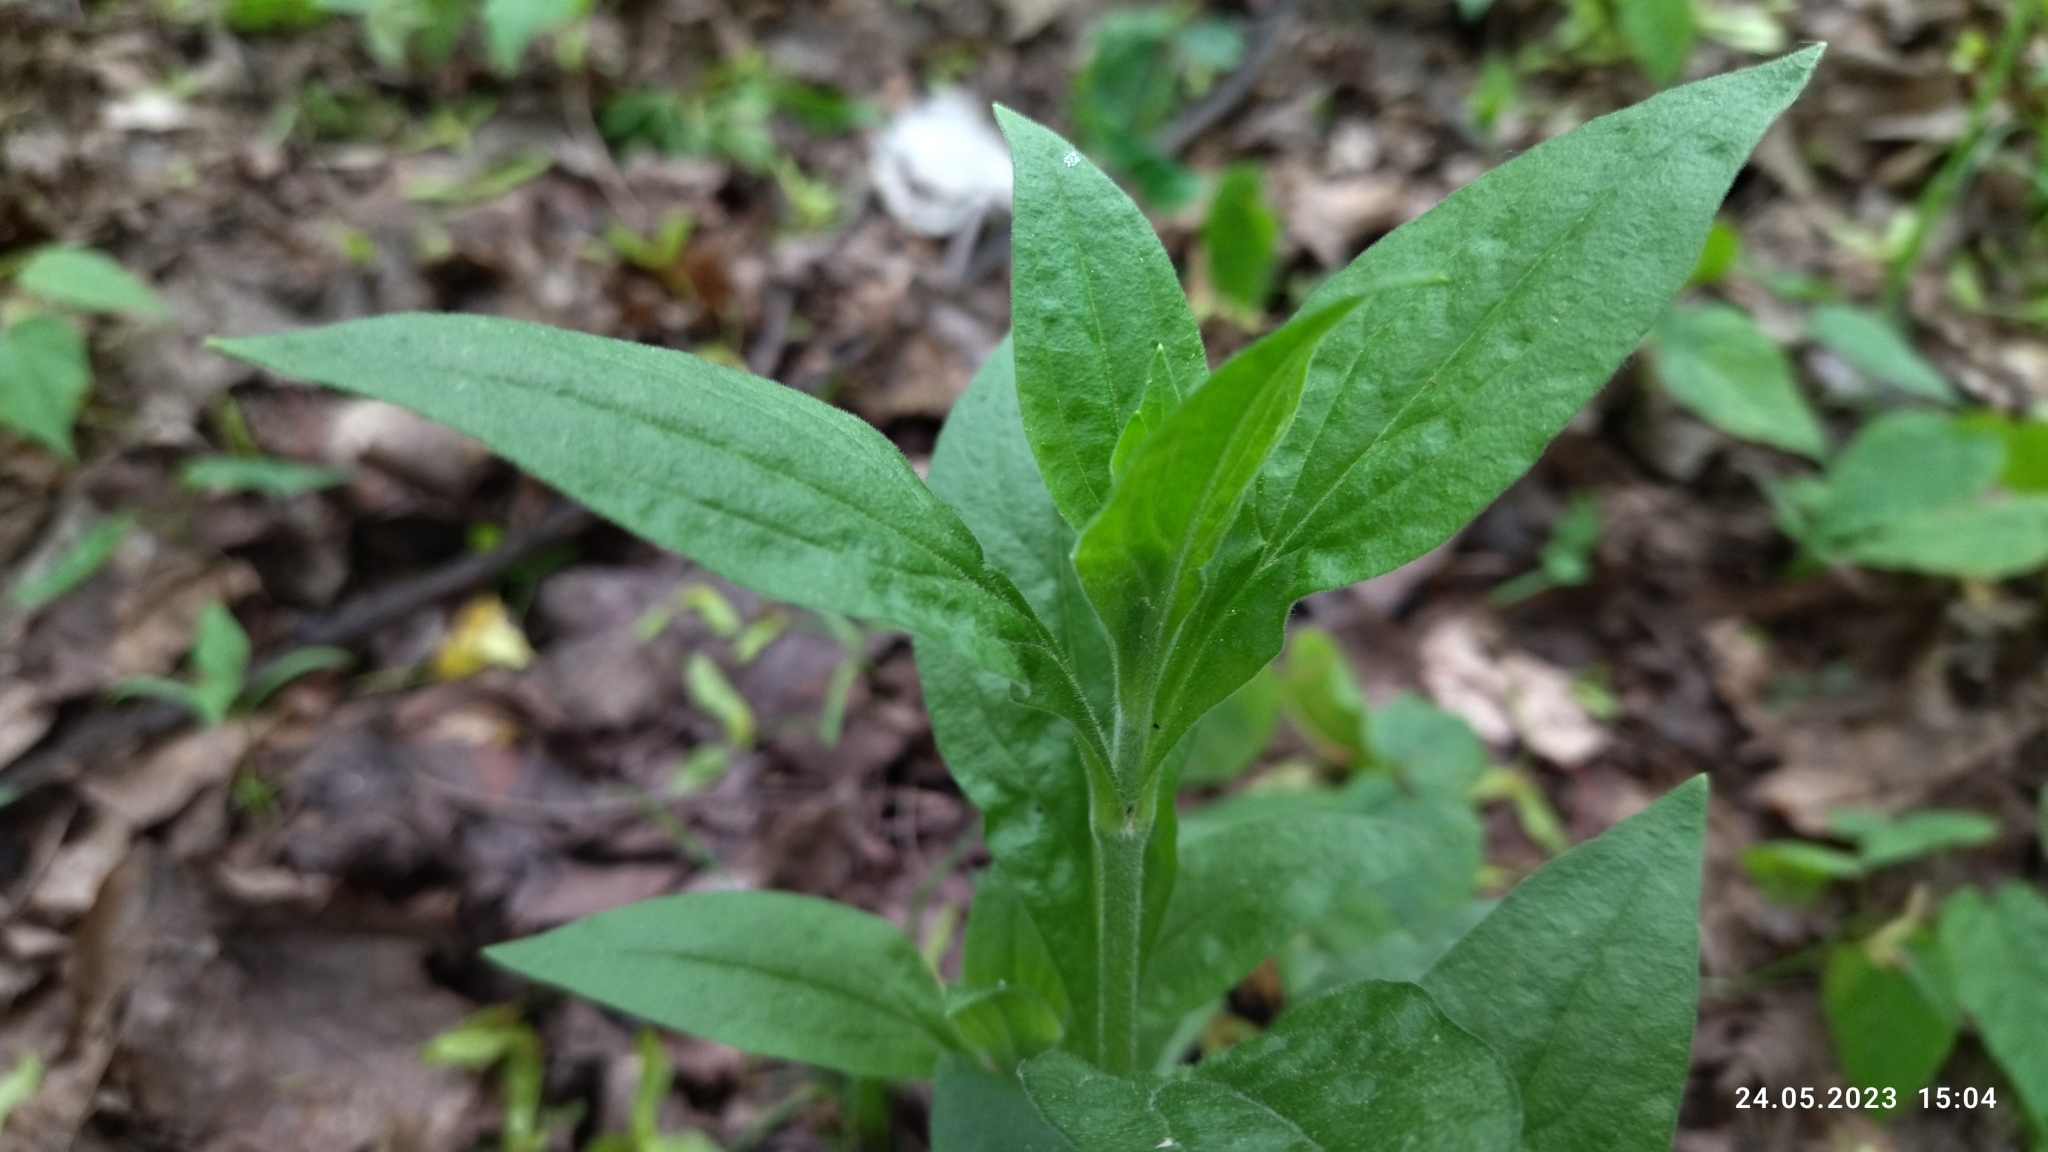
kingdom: Plantae
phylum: Tracheophyta
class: Magnoliopsida
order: Caryophyllales
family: Caryophyllaceae
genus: Silene
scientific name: Silene latifolia
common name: White campion
